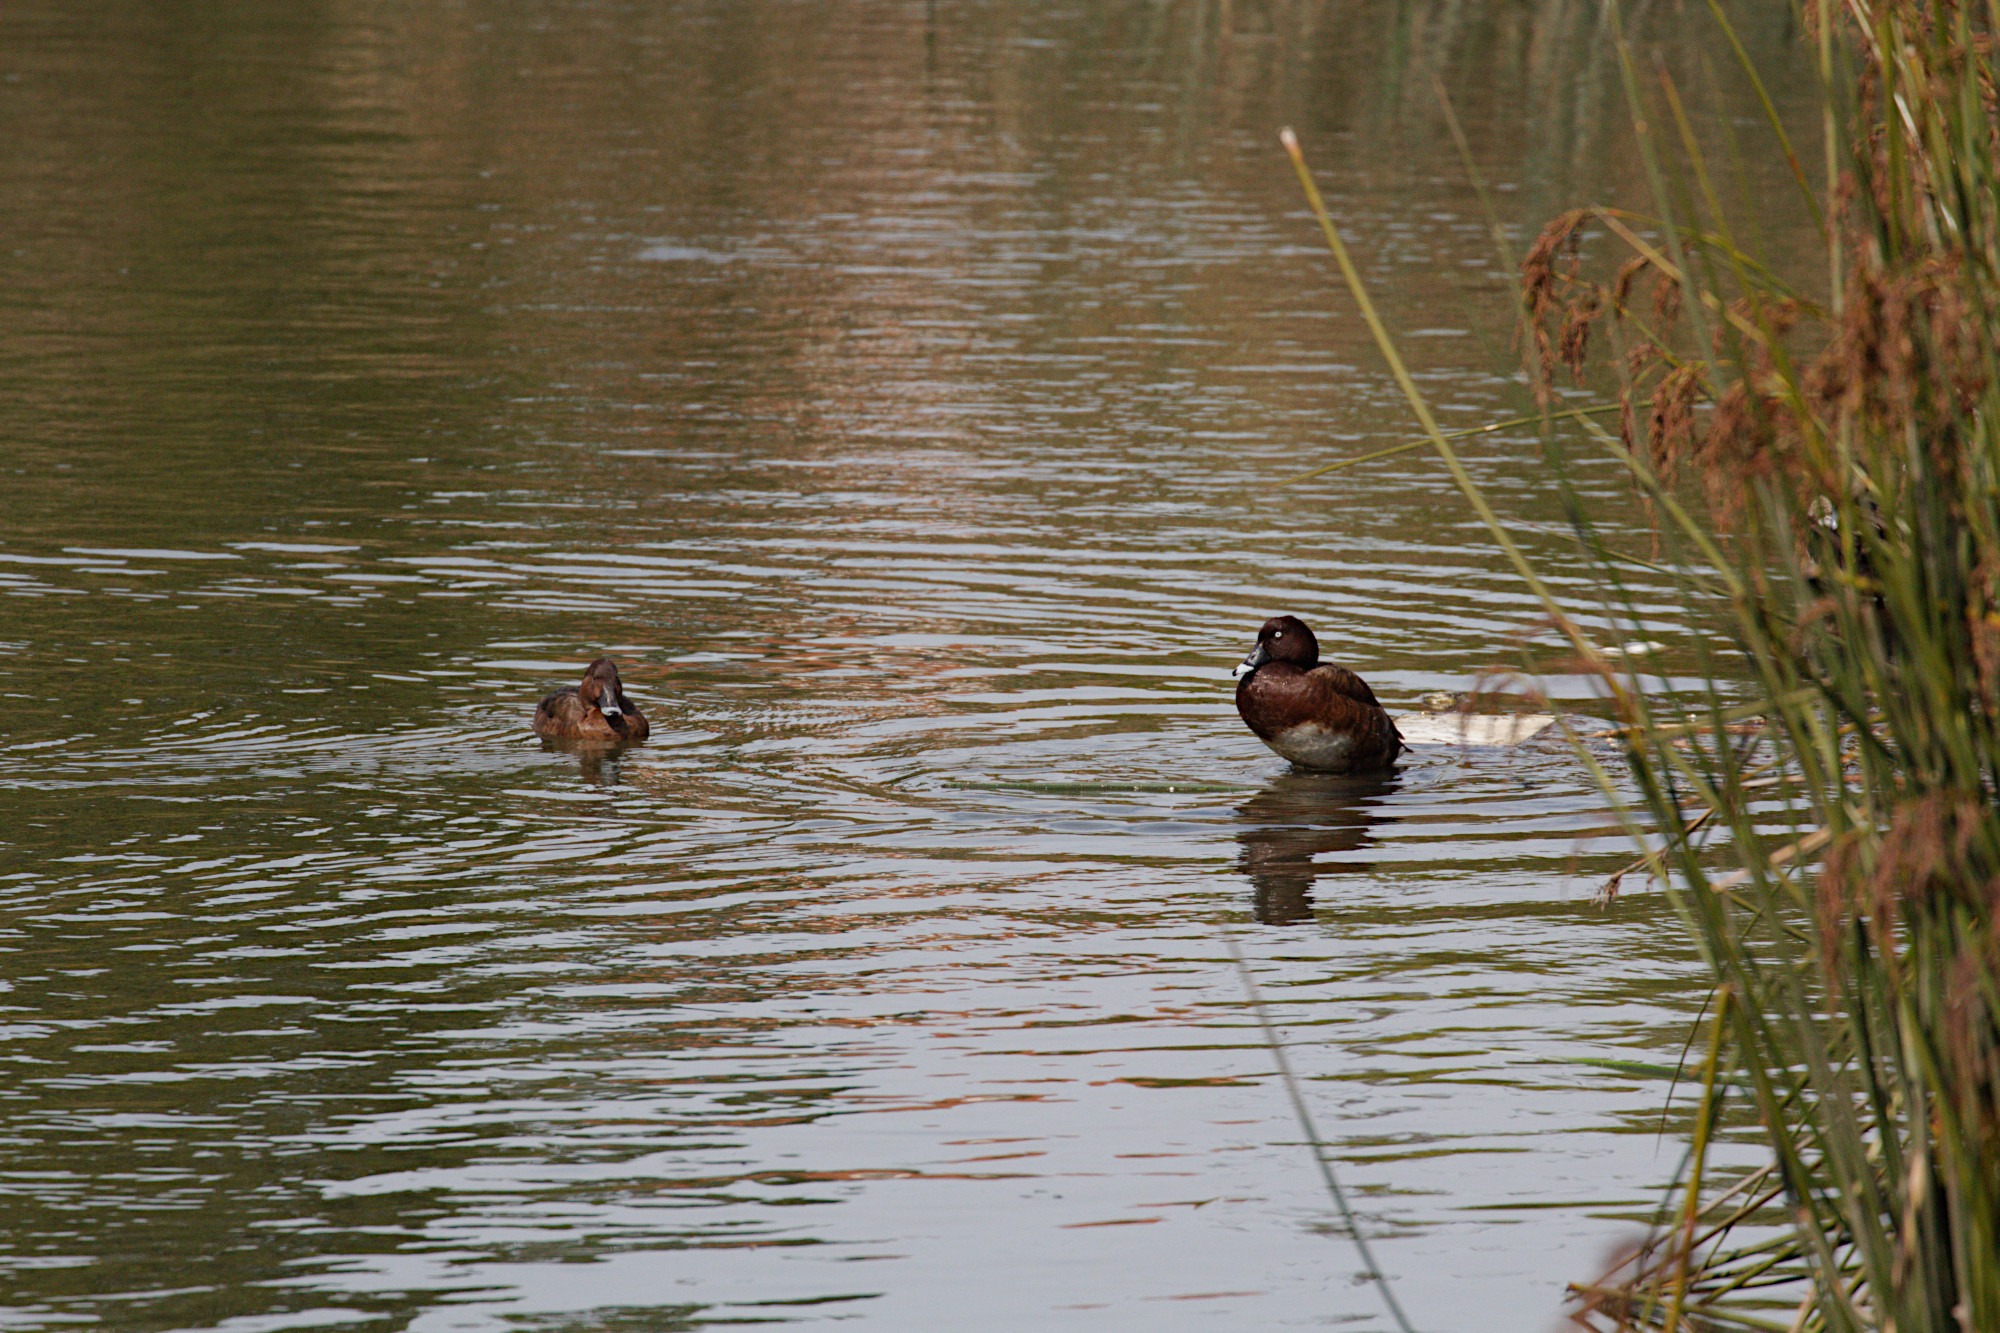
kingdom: Animalia
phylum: Chordata
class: Aves
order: Anseriformes
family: Anatidae
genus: Aythya
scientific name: Aythya australis
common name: Hardhead
